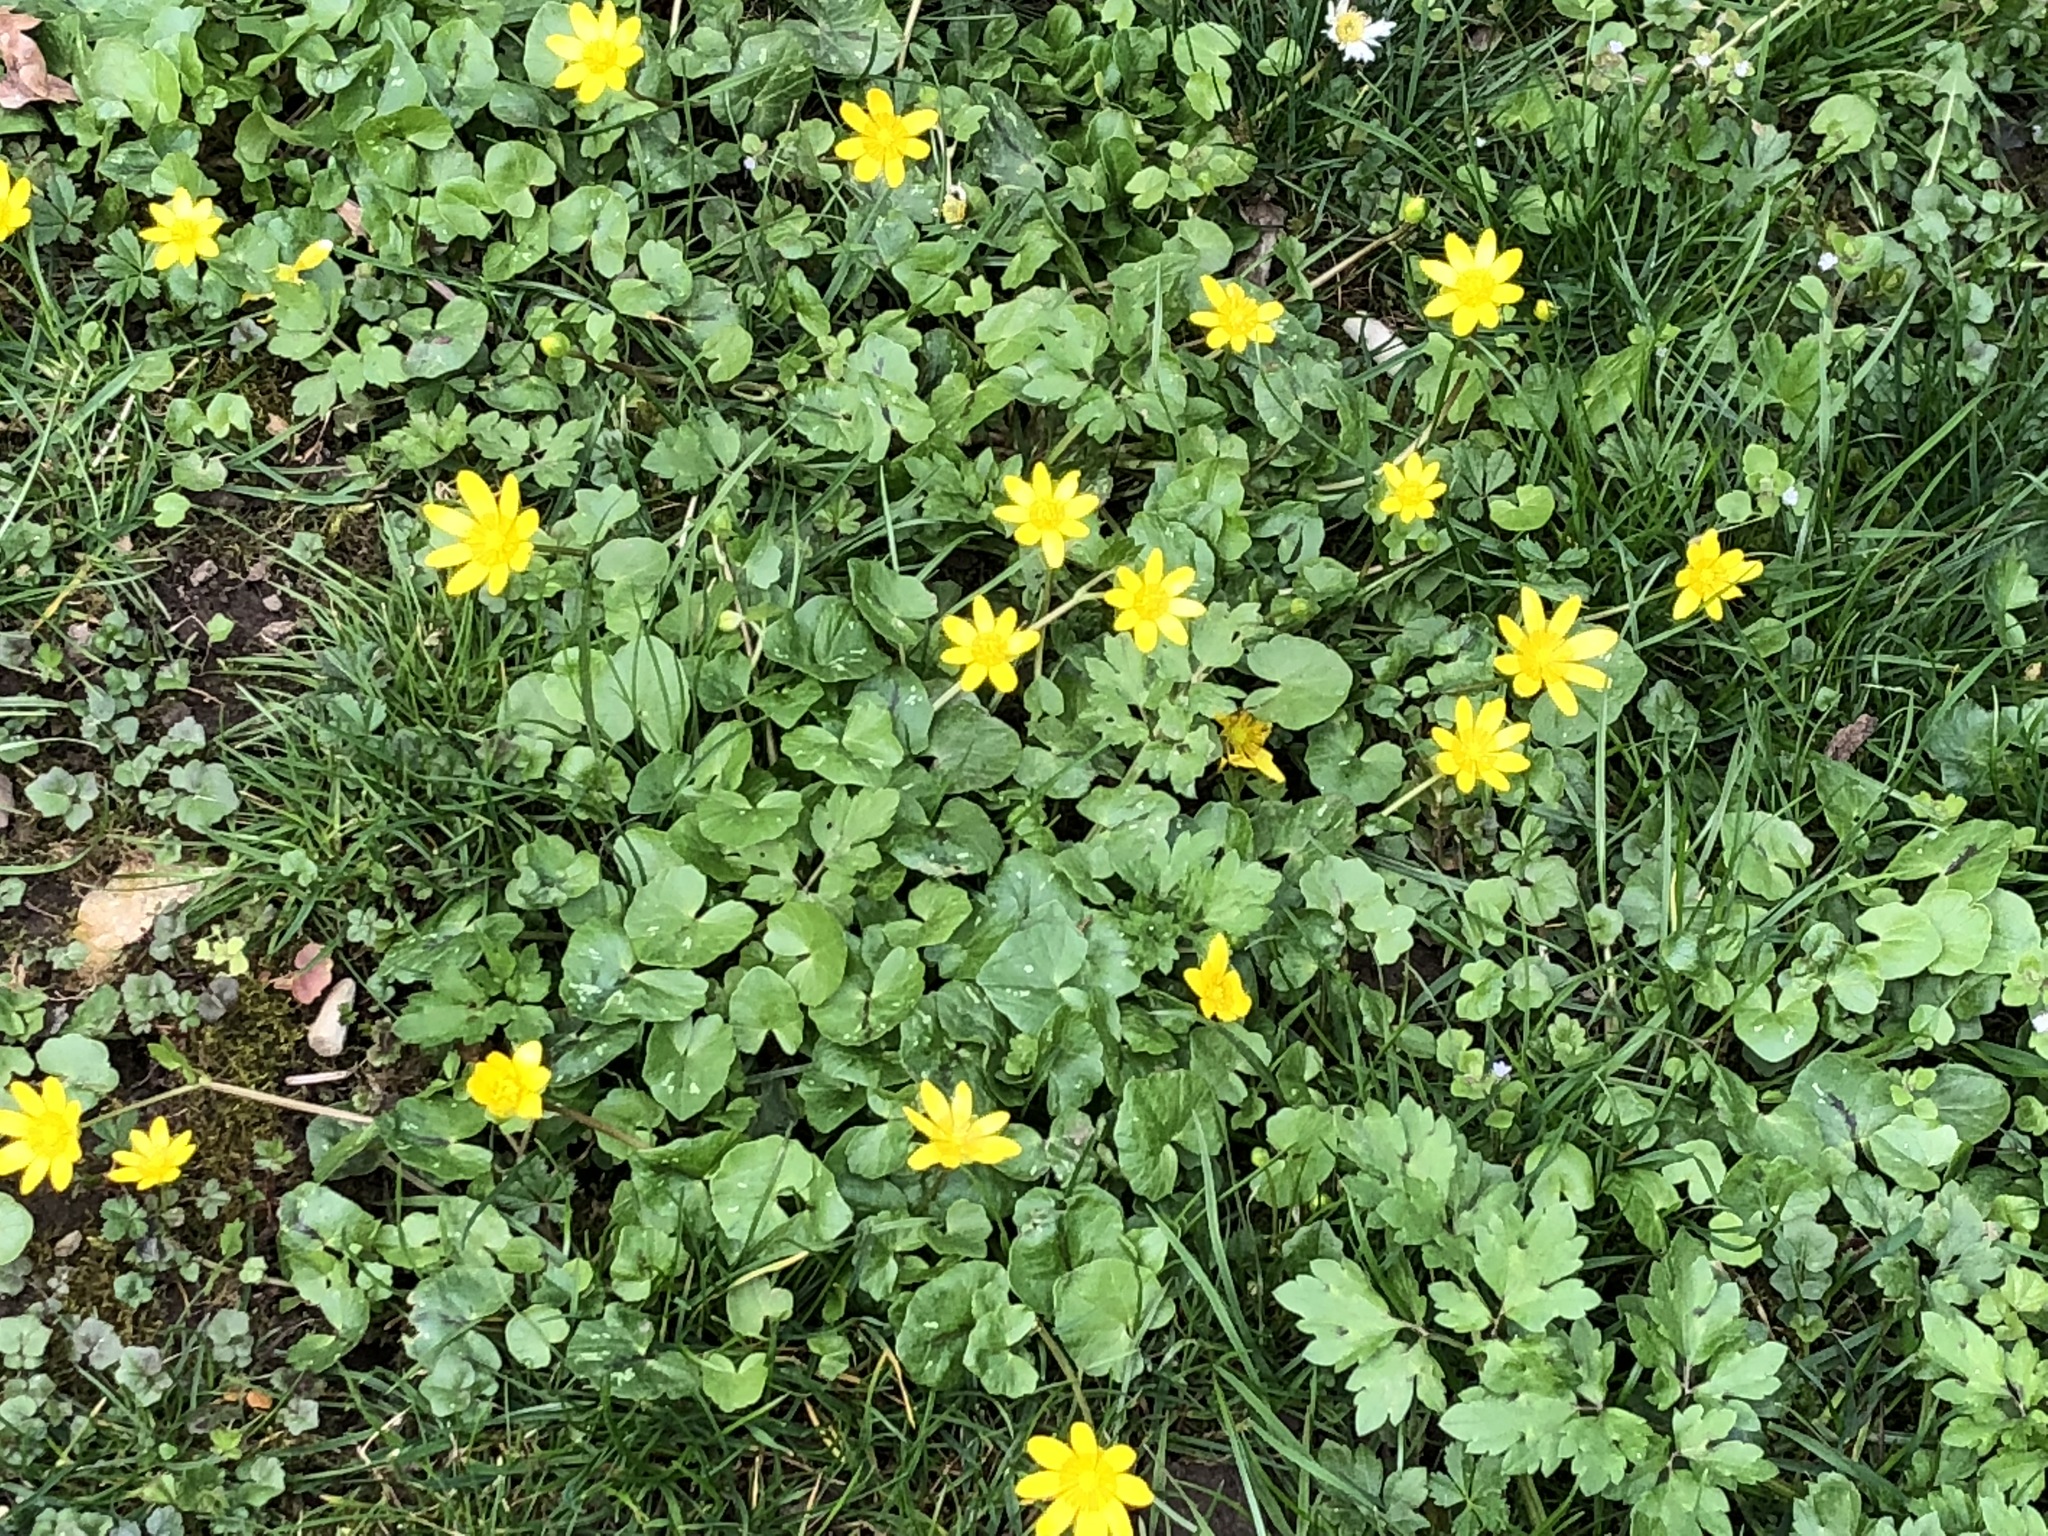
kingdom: Plantae
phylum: Tracheophyta
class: Magnoliopsida
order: Ranunculales
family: Ranunculaceae
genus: Ficaria
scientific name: Ficaria verna
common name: Lesser celandine
